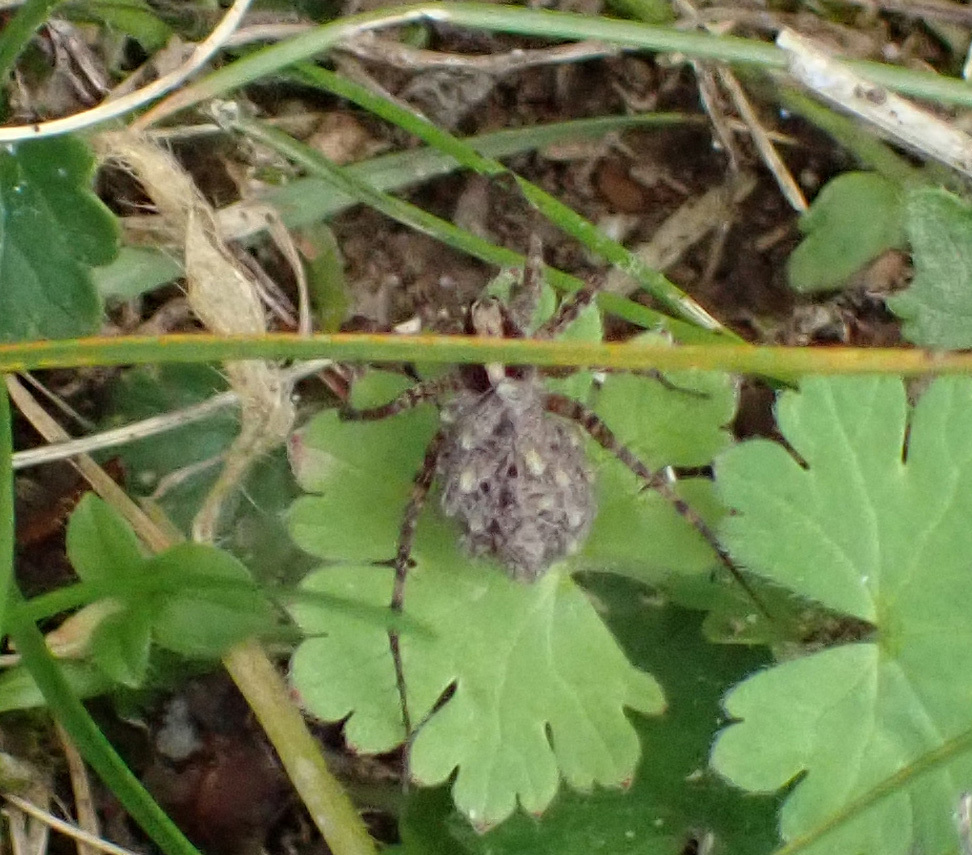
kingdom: Animalia
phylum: Arthropoda
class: Arachnida
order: Araneae
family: Lycosidae
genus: Pardosa
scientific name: Pardosa
